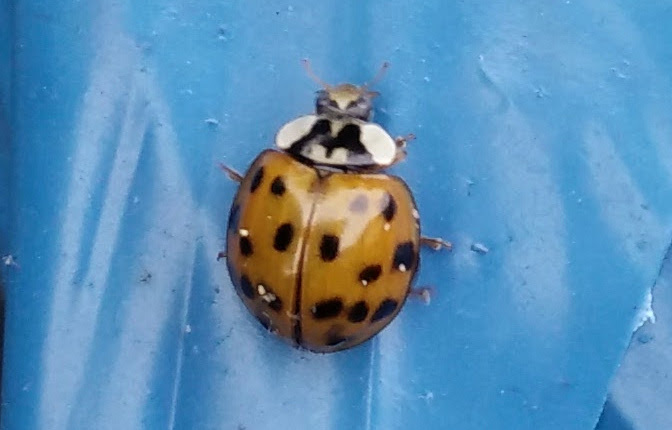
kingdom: Animalia
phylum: Arthropoda
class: Insecta
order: Coleoptera
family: Coccinellidae
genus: Harmonia
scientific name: Harmonia axyridis
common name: Harlequin ladybird
